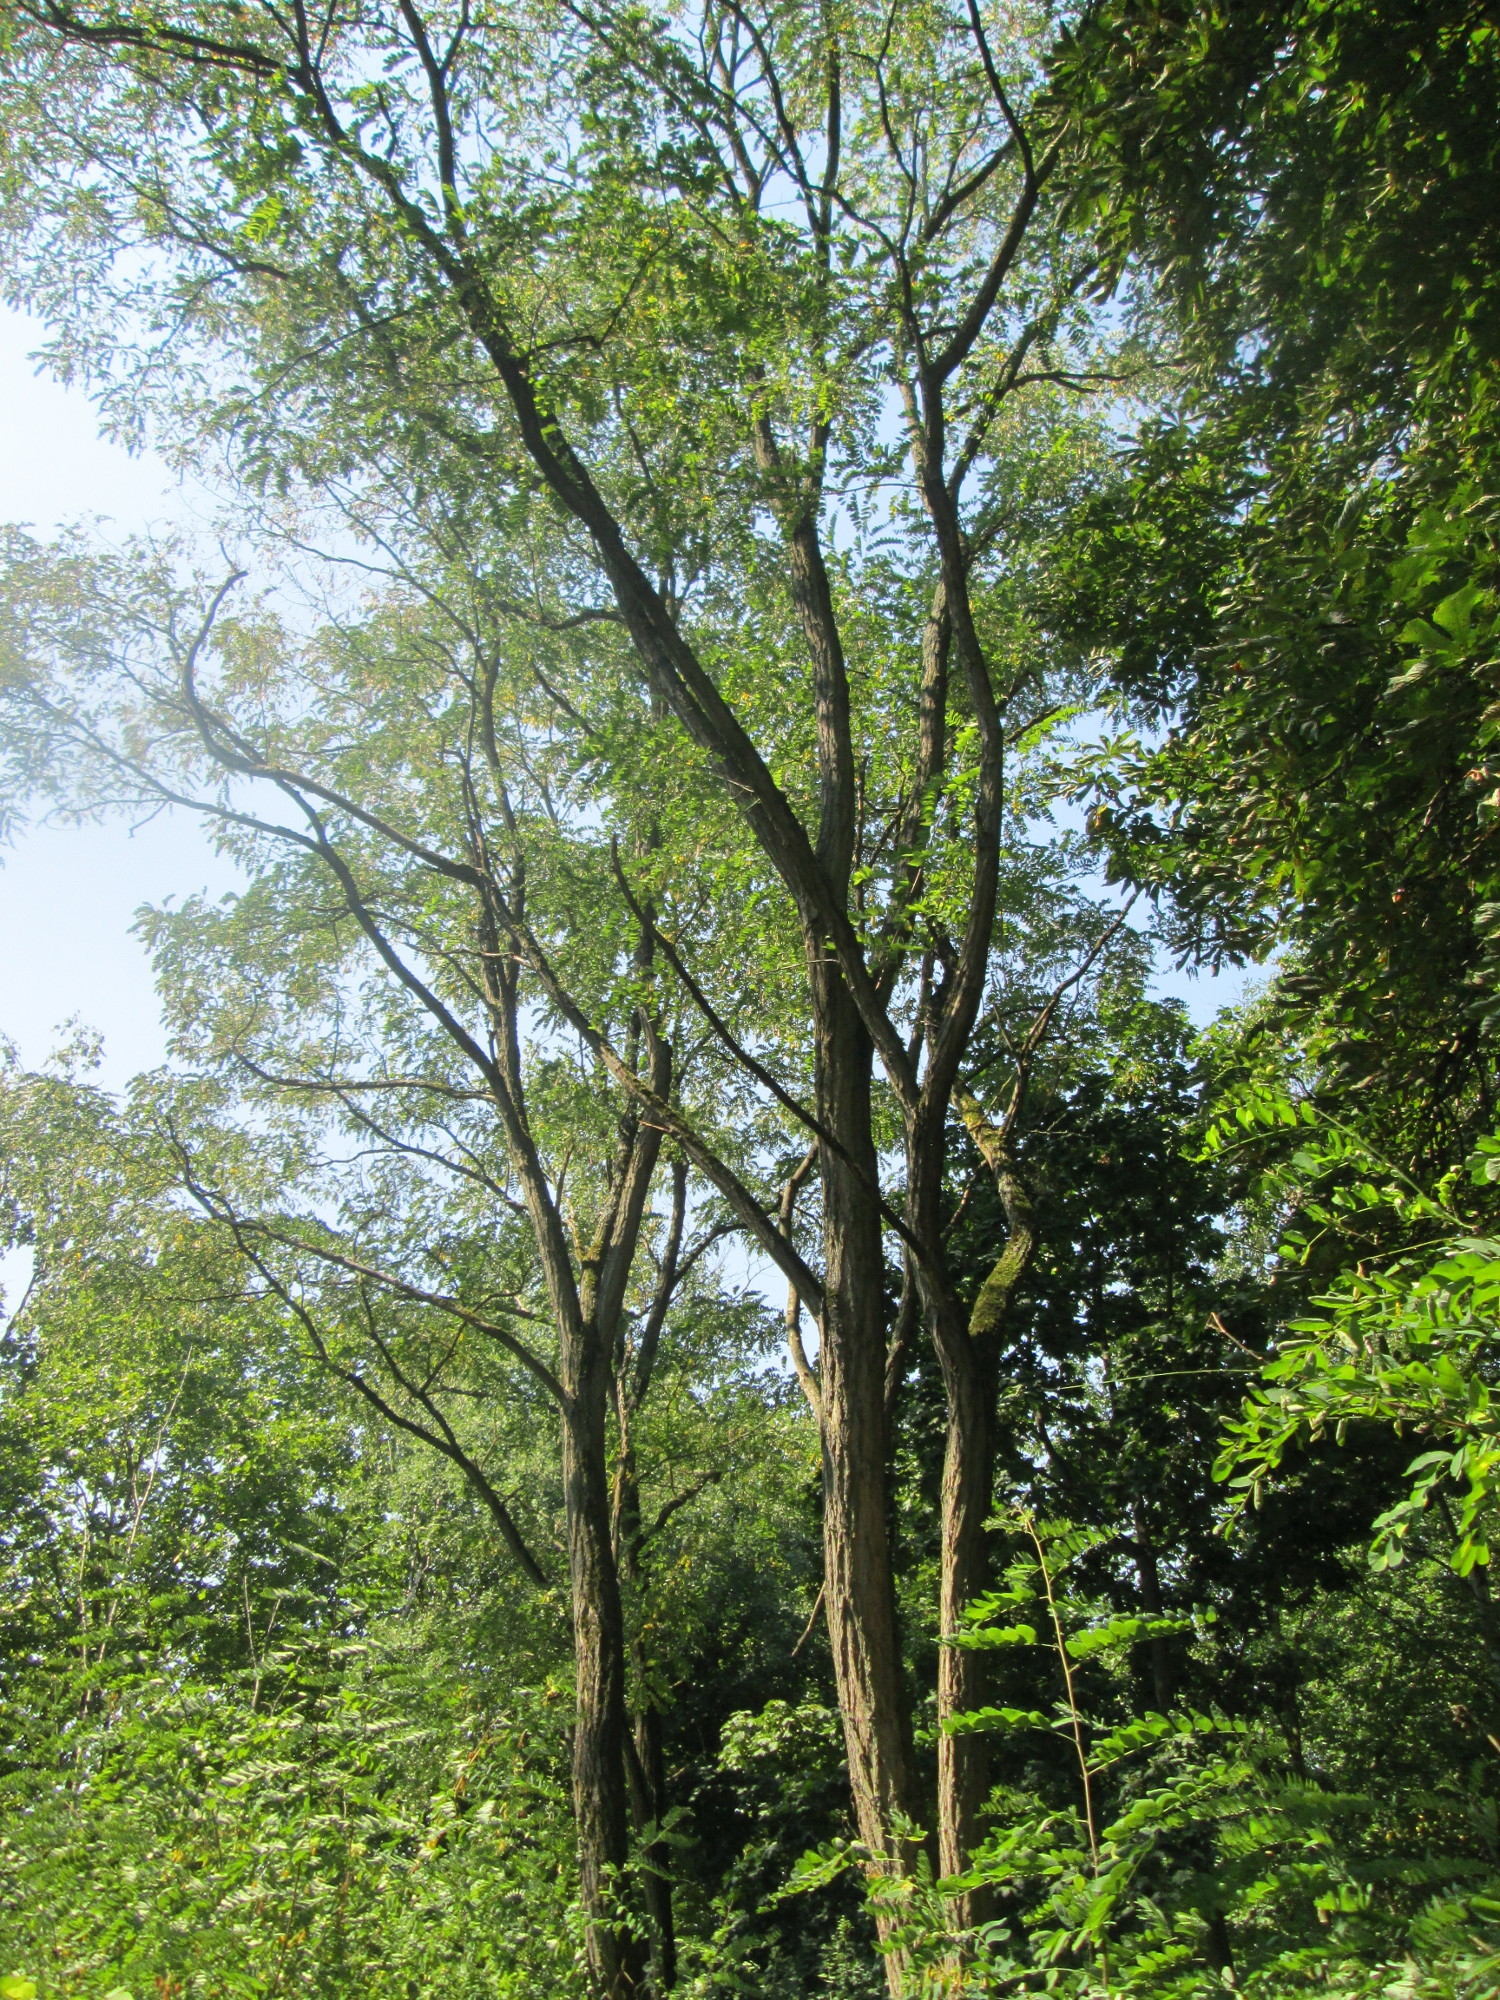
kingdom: Plantae
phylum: Tracheophyta
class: Magnoliopsida
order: Fabales
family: Fabaceae
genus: Robinia
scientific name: Robinia pseudoacacia
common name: Black locust
